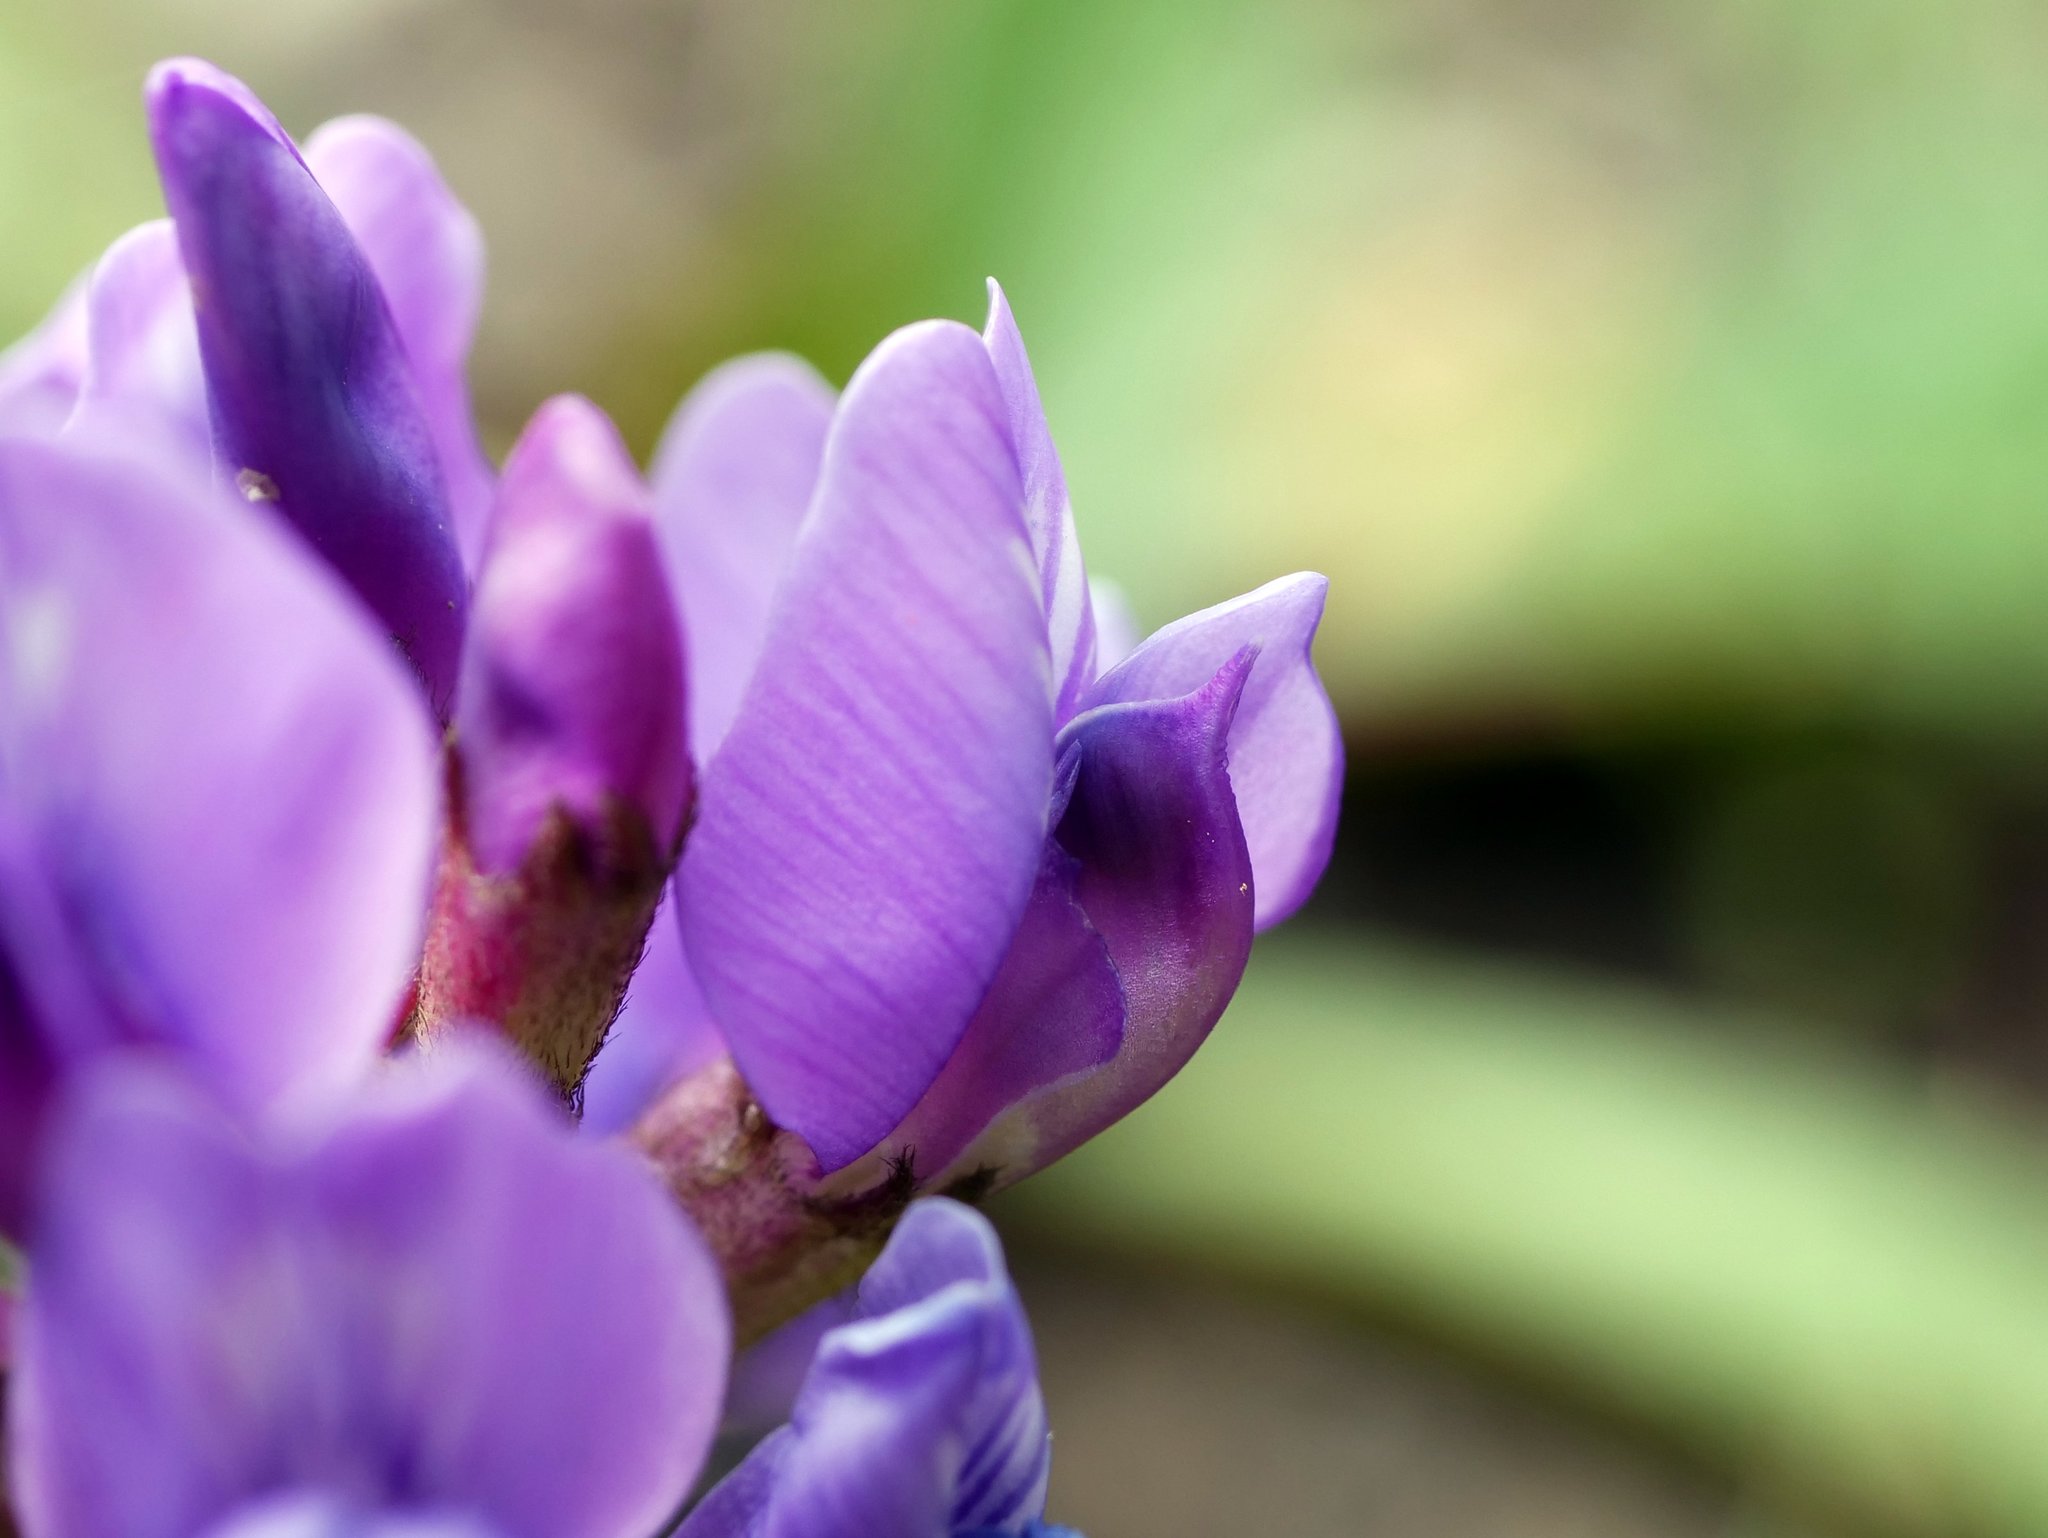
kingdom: Plantae
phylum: Tracheophyta
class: Magnoliopsida
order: Fabales
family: Fabaceae
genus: Oxytropis
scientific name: Oxytropis montana
